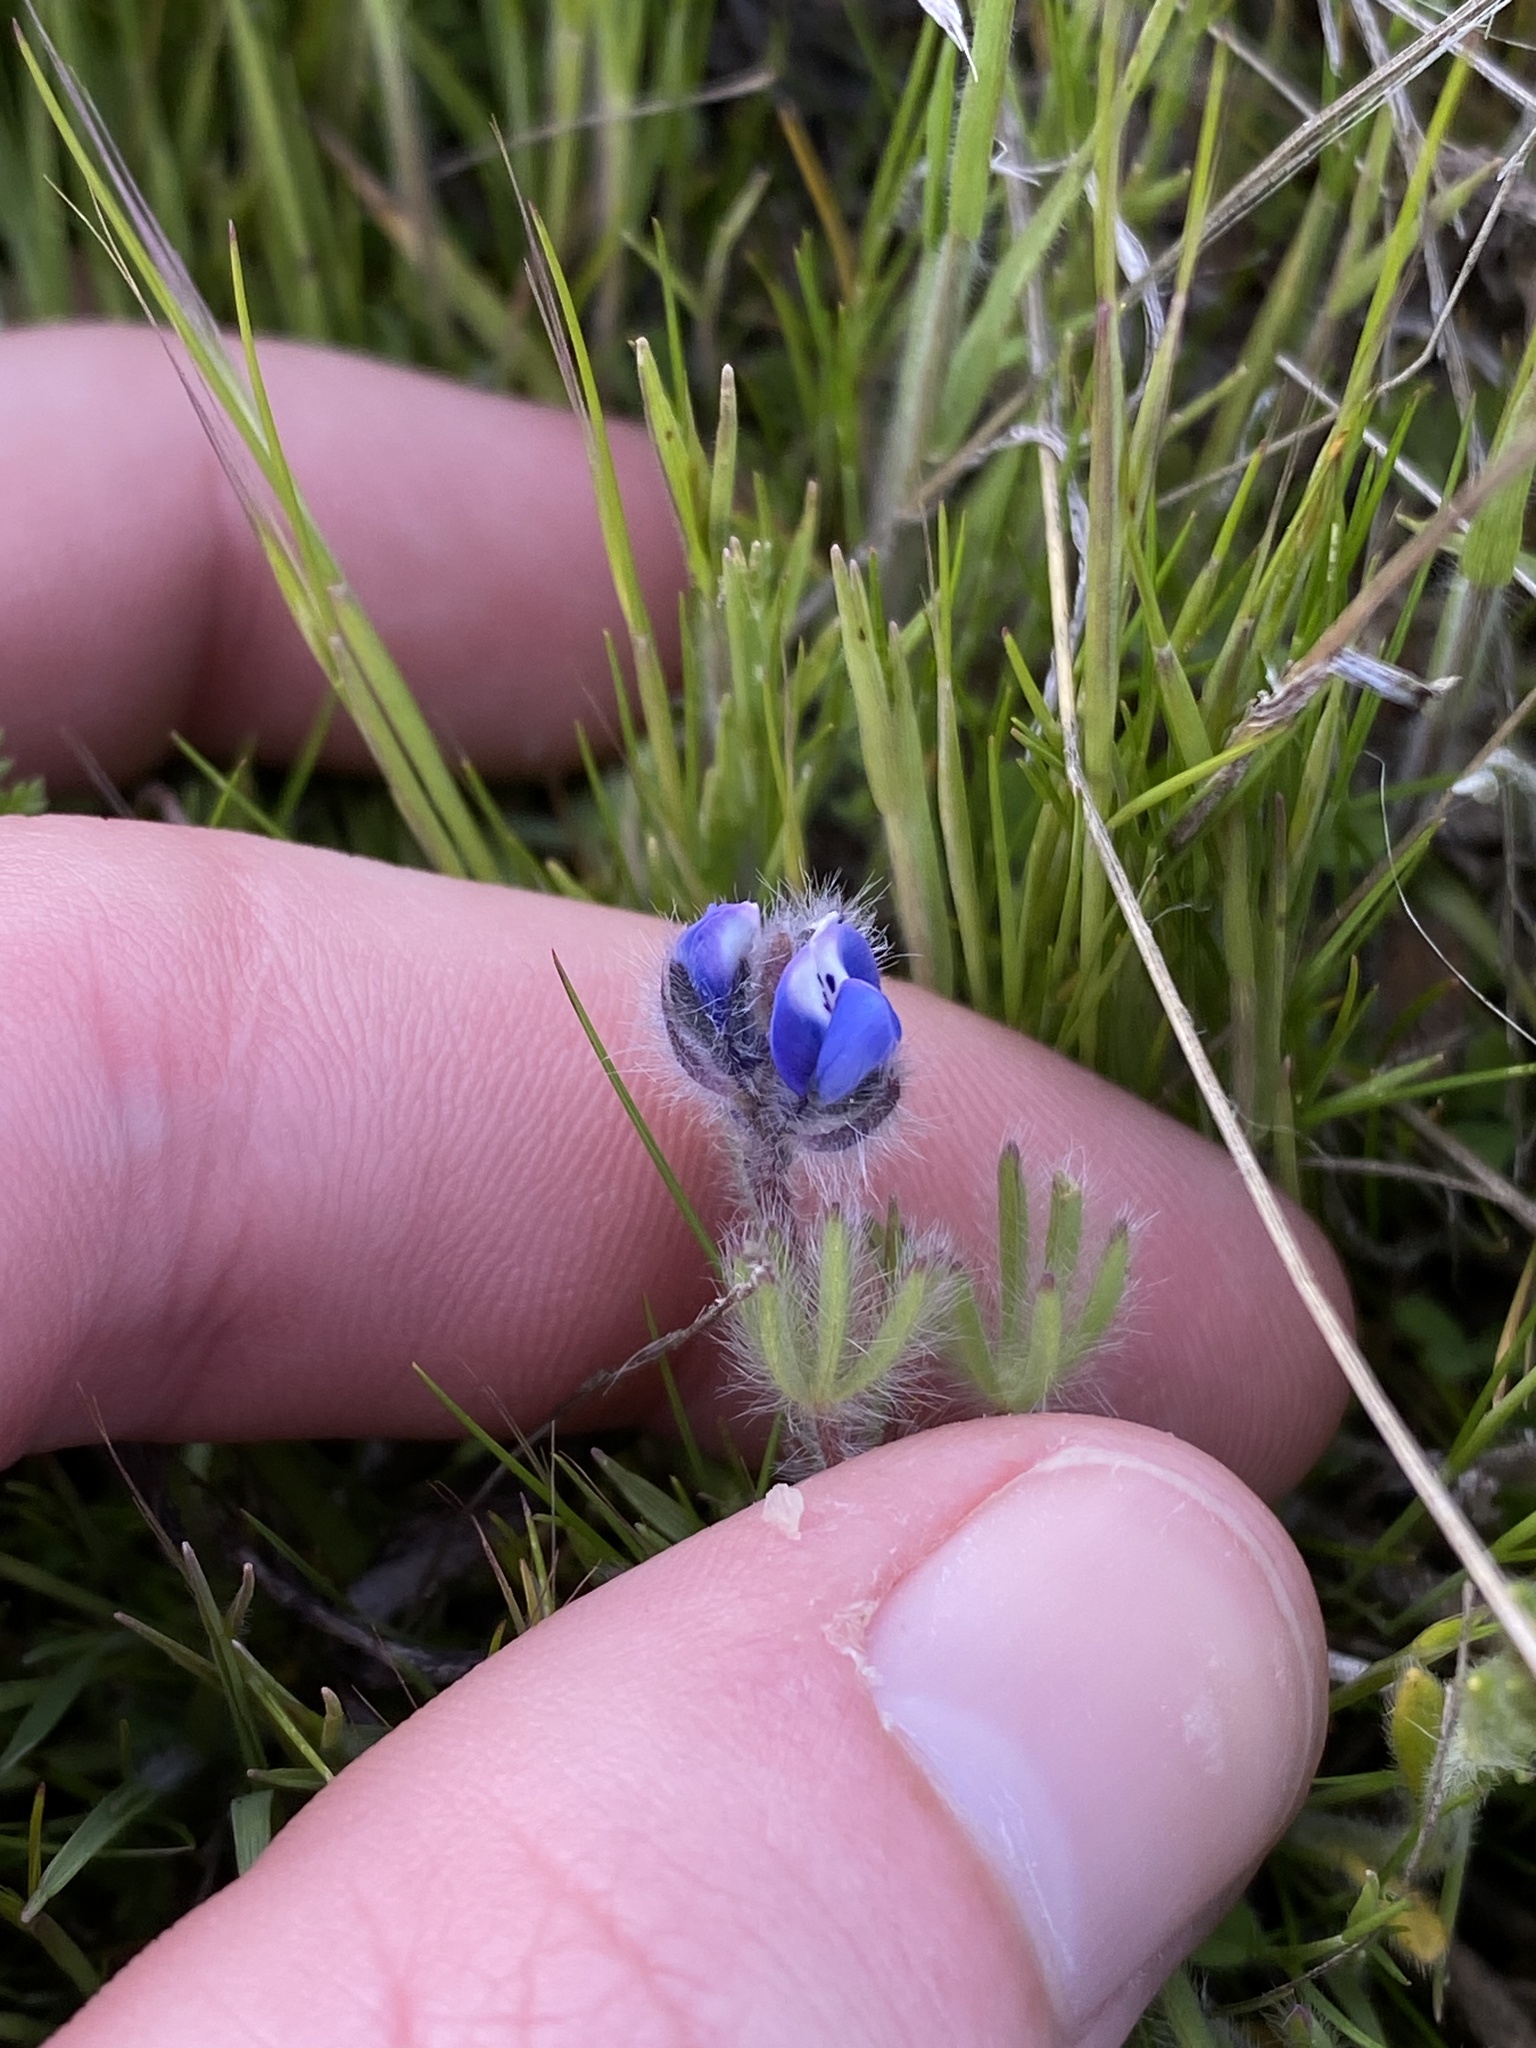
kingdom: Plantae
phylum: Tracheophyta
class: Magnoliopsida
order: Fabales
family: Fabaceae
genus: Lupinus
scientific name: Lupinus bicolor
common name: Miniature lupine
